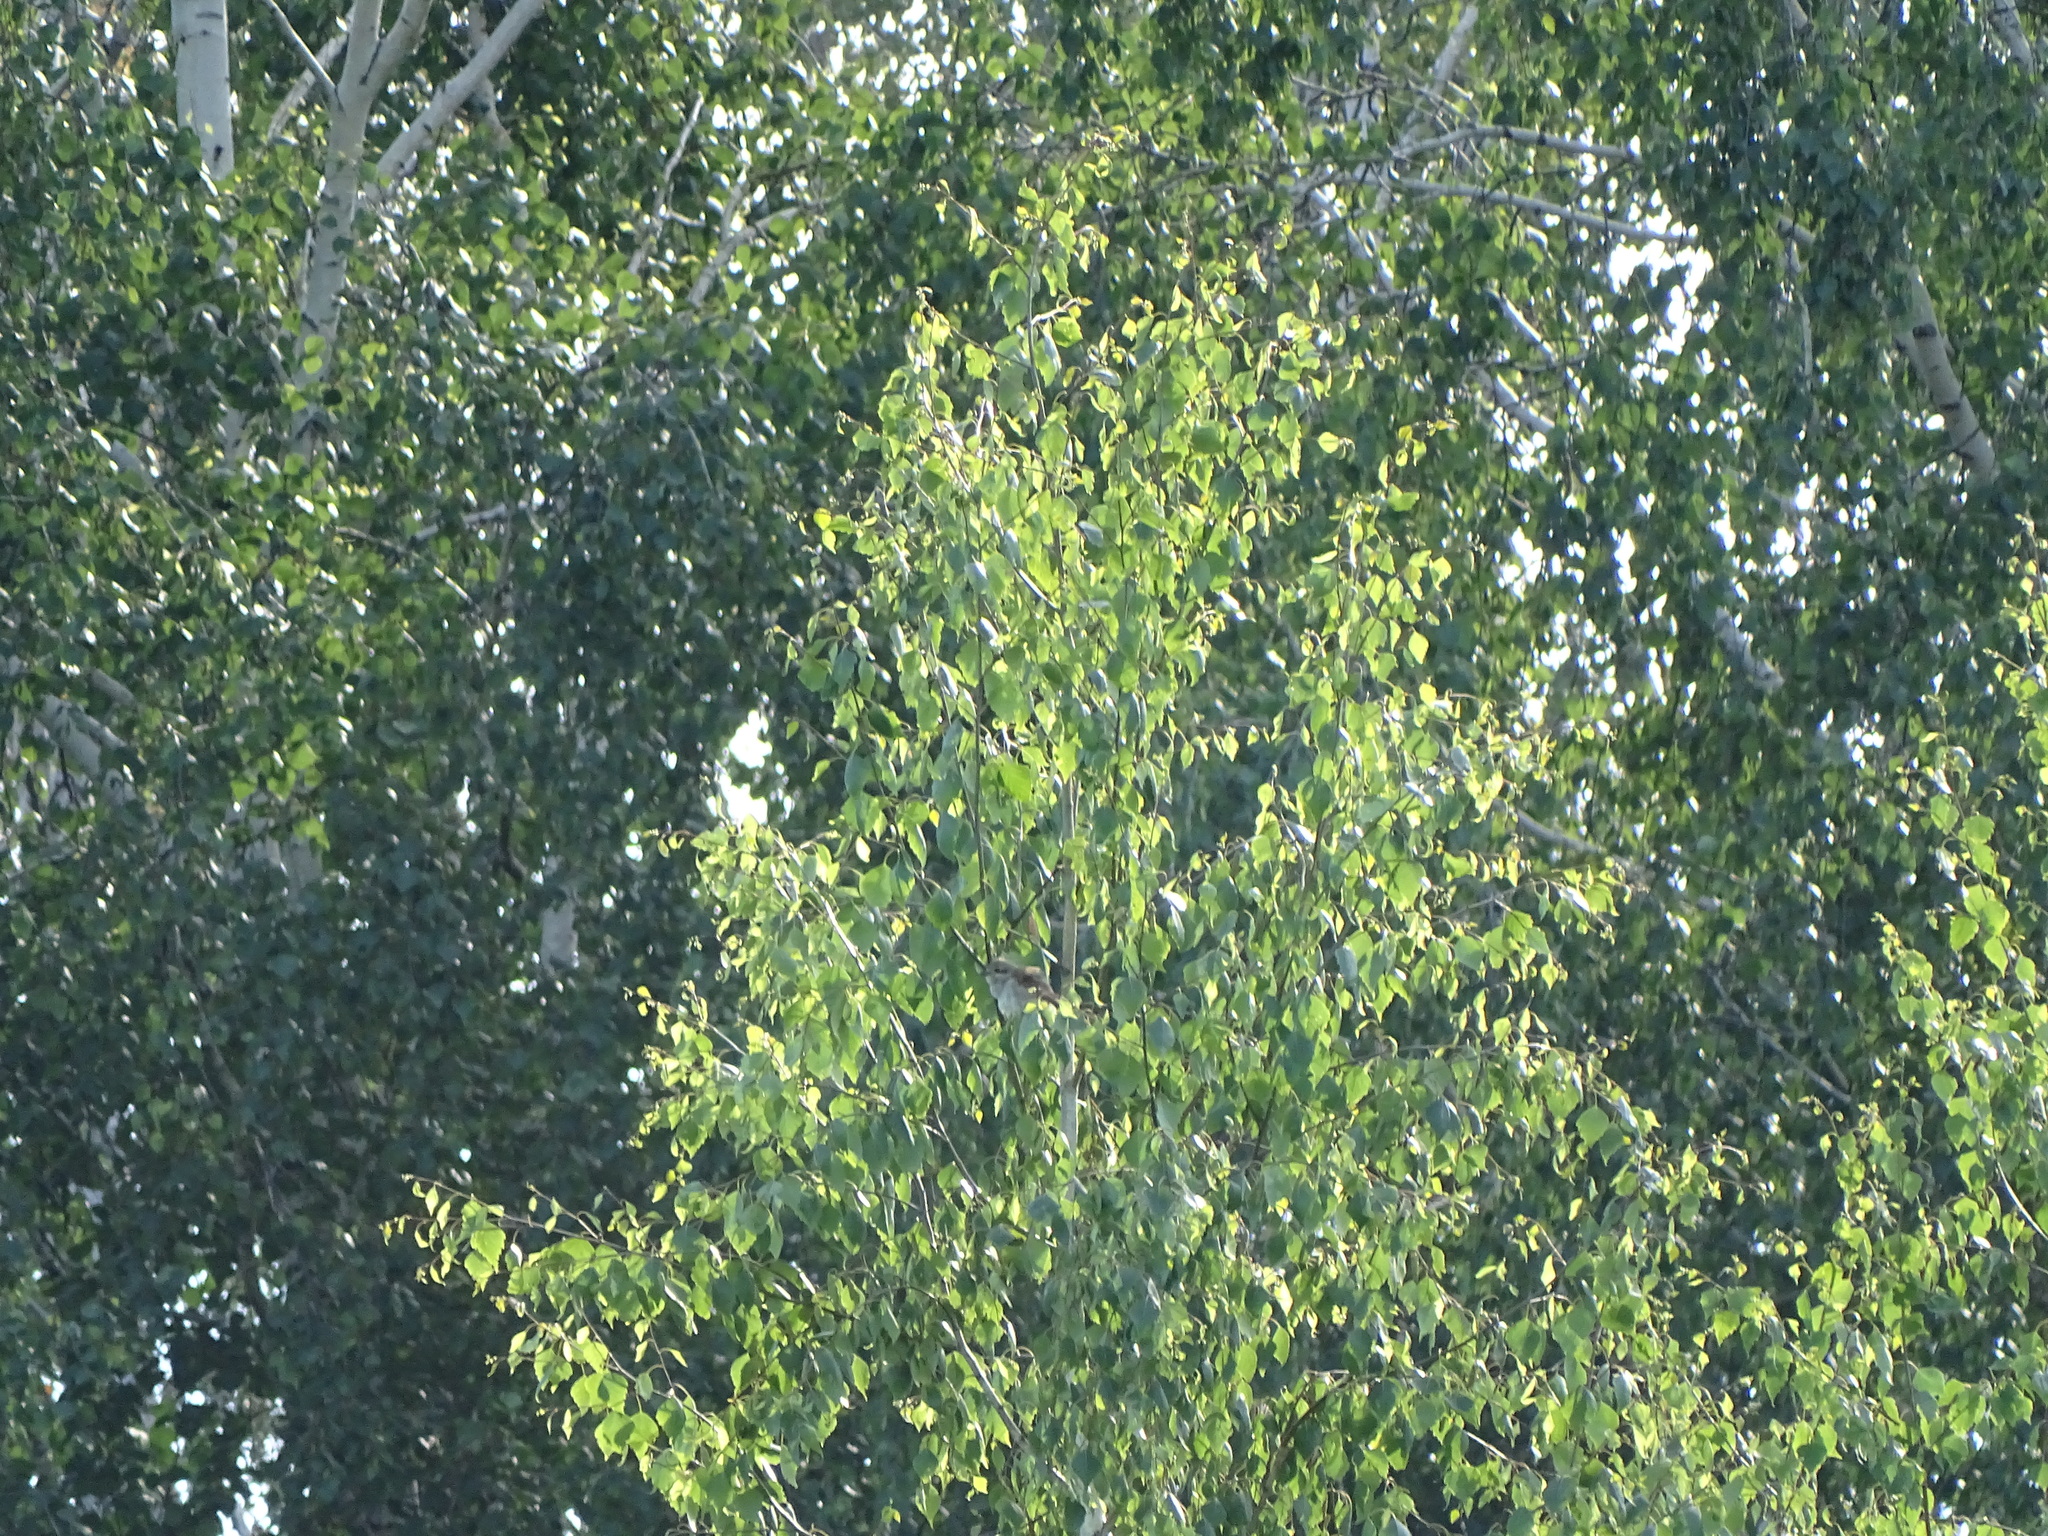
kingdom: Animalia
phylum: Chordata
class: Aves
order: Passeriformes
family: Laniidae
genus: Lanius
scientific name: Lanius collurio
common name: Red-backed shrike
